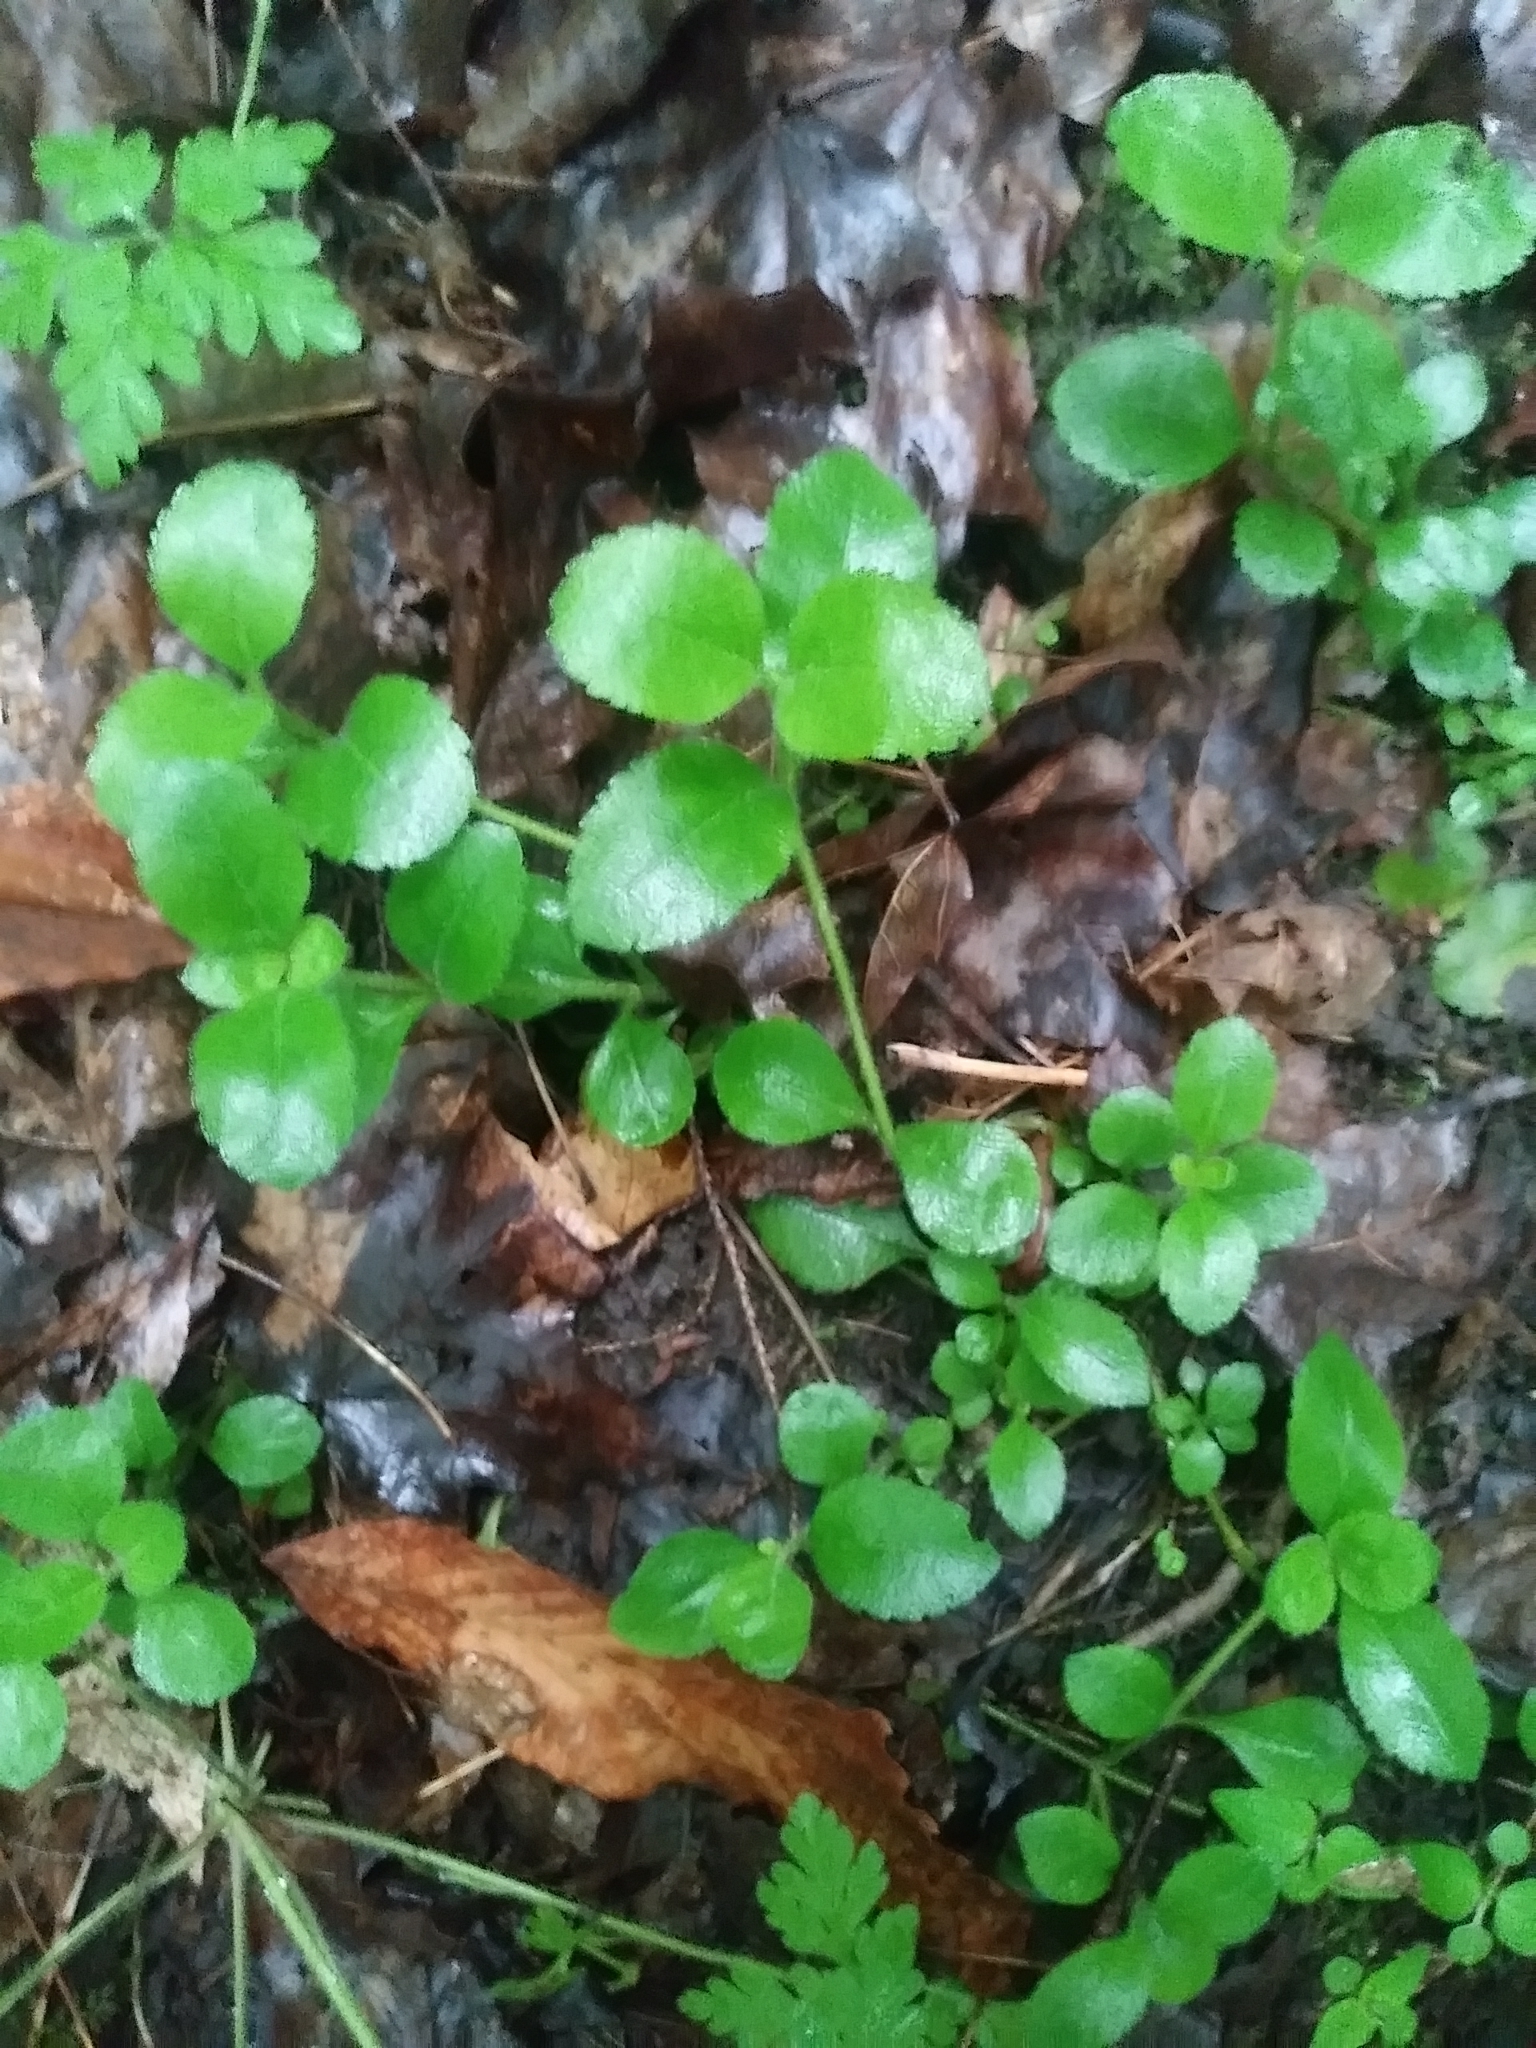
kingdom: Plantae
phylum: Tracheophyta
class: Magnoliopsida
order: Dipsacales
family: Caprifoliaceae
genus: Linnaea
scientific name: Linnaea borealis
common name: Twinflower
